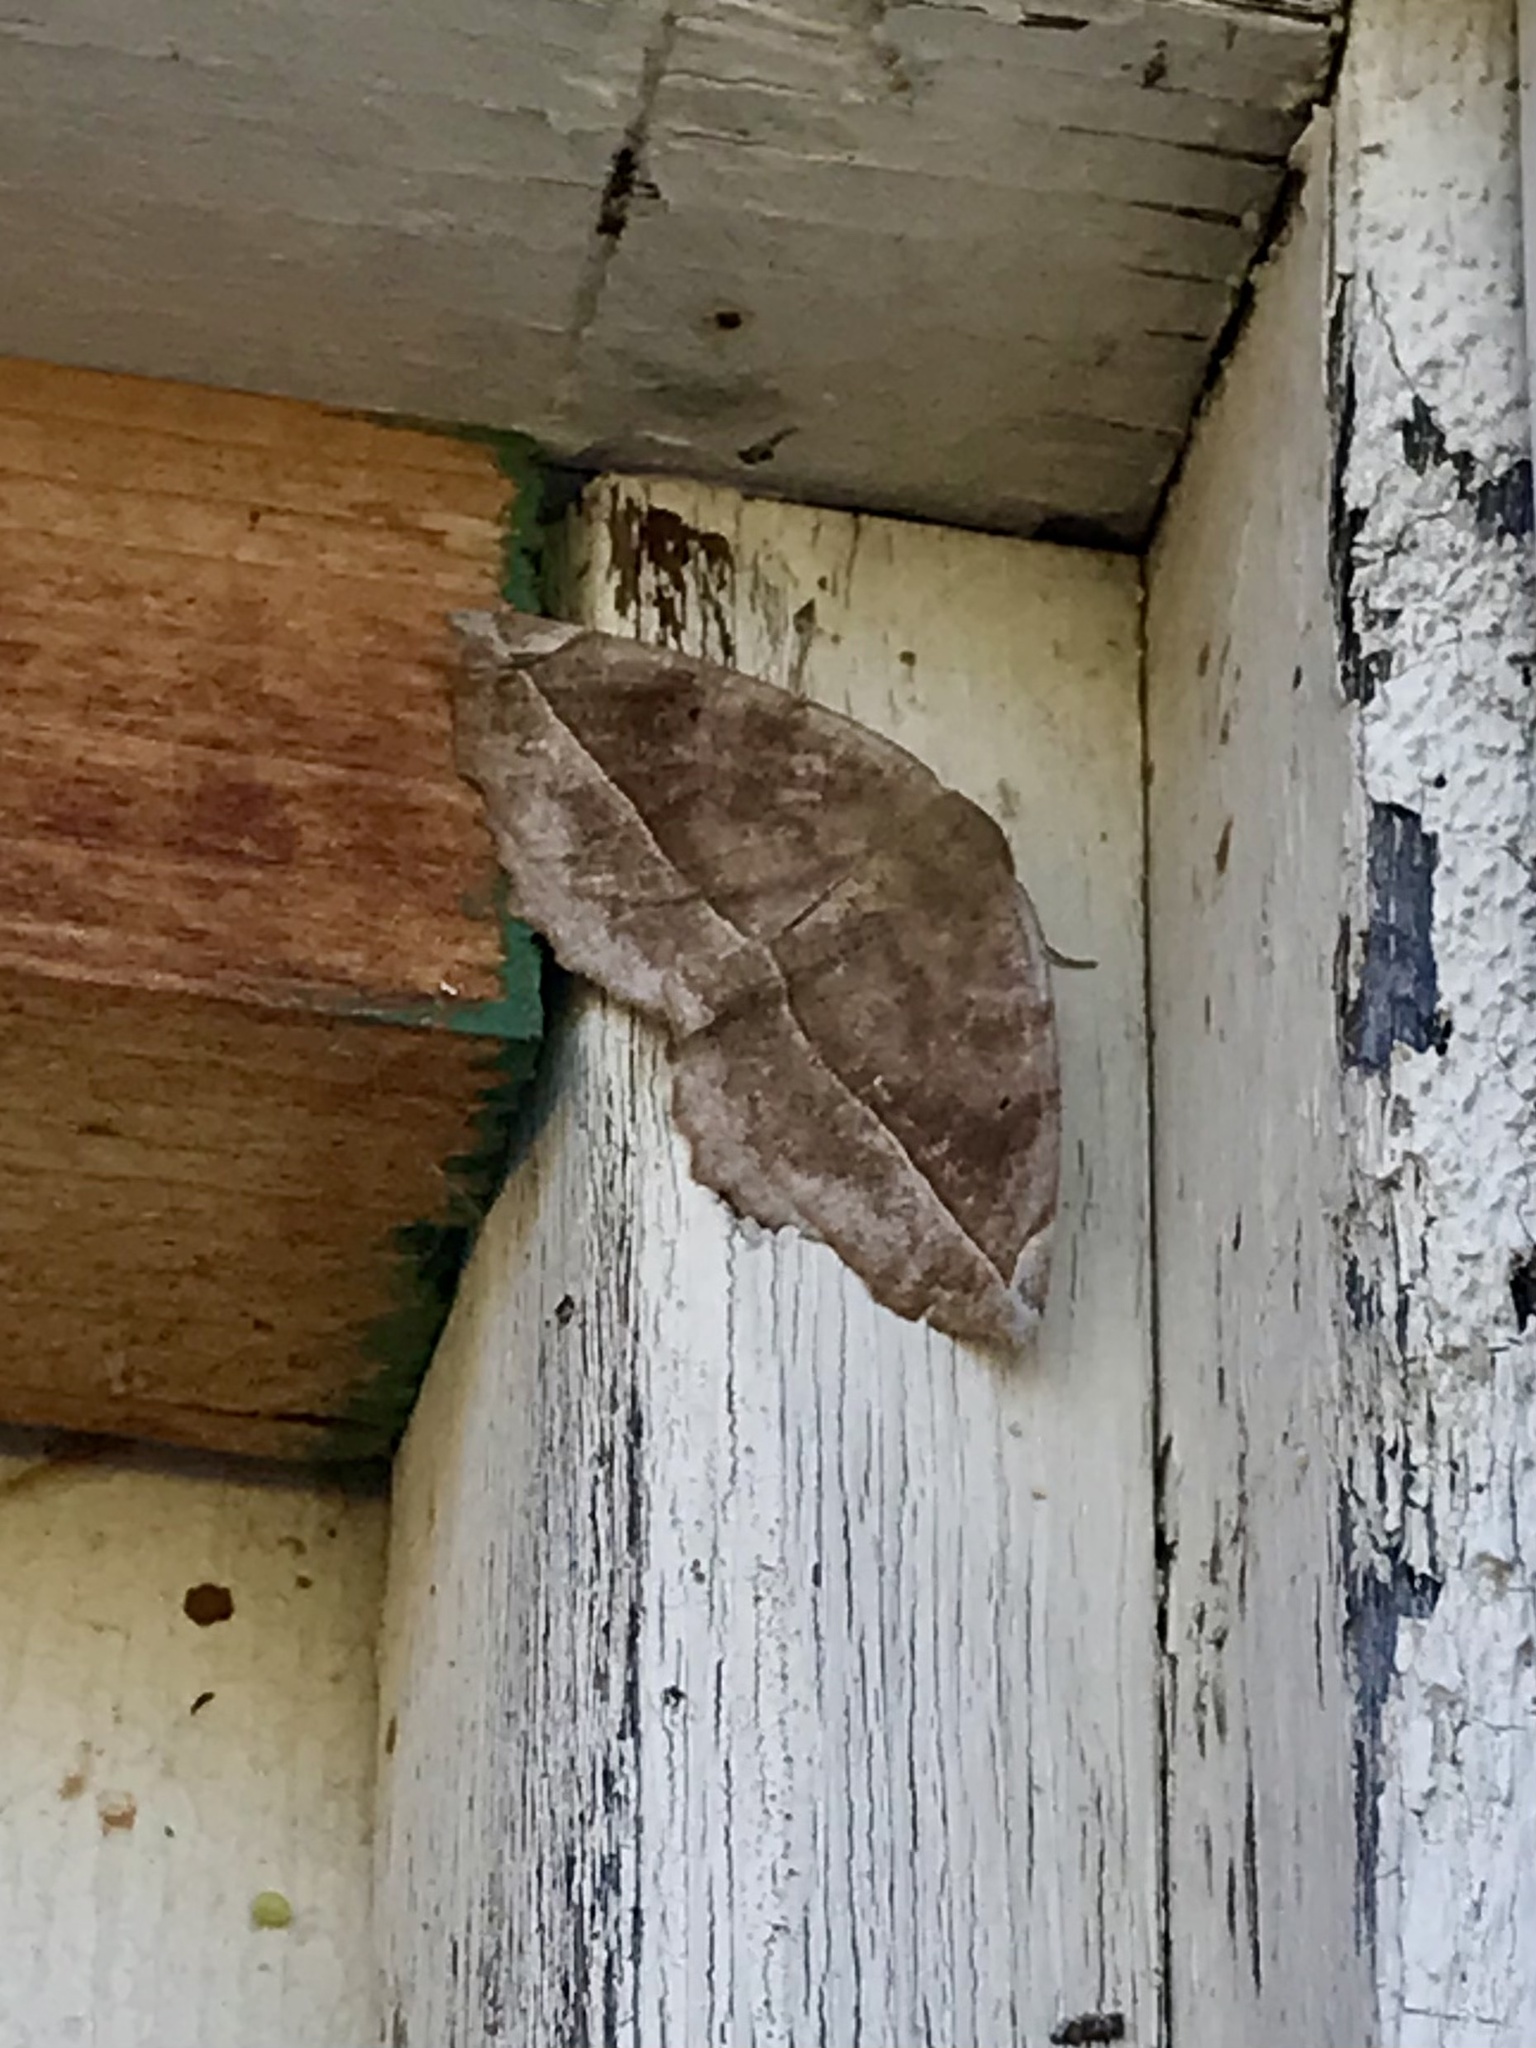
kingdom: Animalia
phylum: Arthropoda
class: Insecta
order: Lepidoptera
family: Geometridae
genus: Eutrapela
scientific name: Eutrapela clemataria
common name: Curved-toothed geometer
